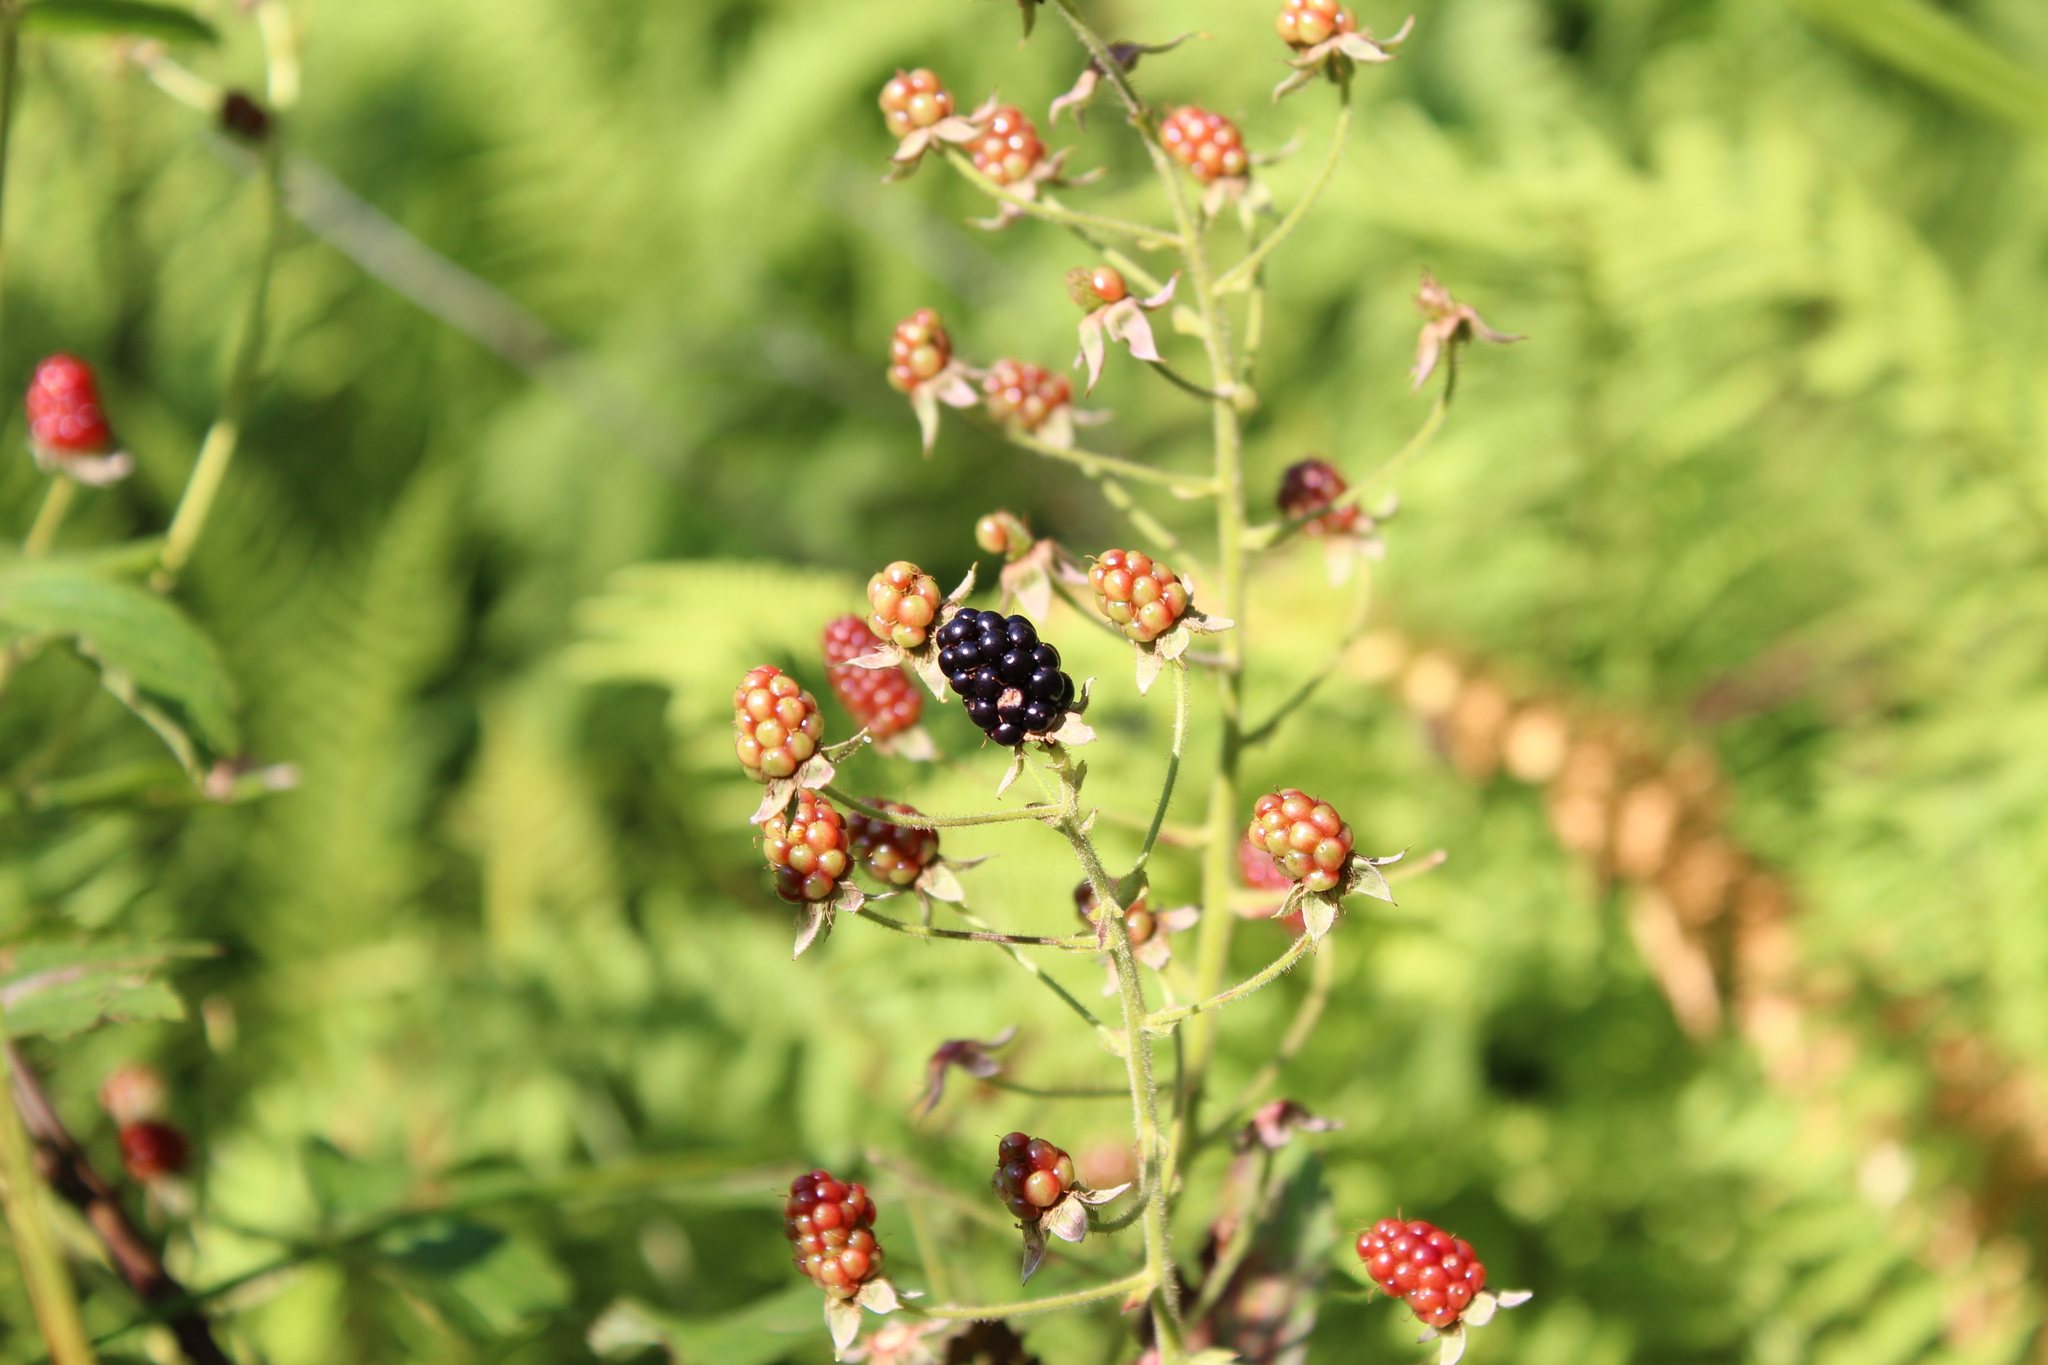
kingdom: Plantae
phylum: Tracheophyta
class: Magnoliopsida
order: Rosales
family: Rosaceae
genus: Rubus
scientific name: Rubus allegheniensis
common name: Allegheny blackberry
